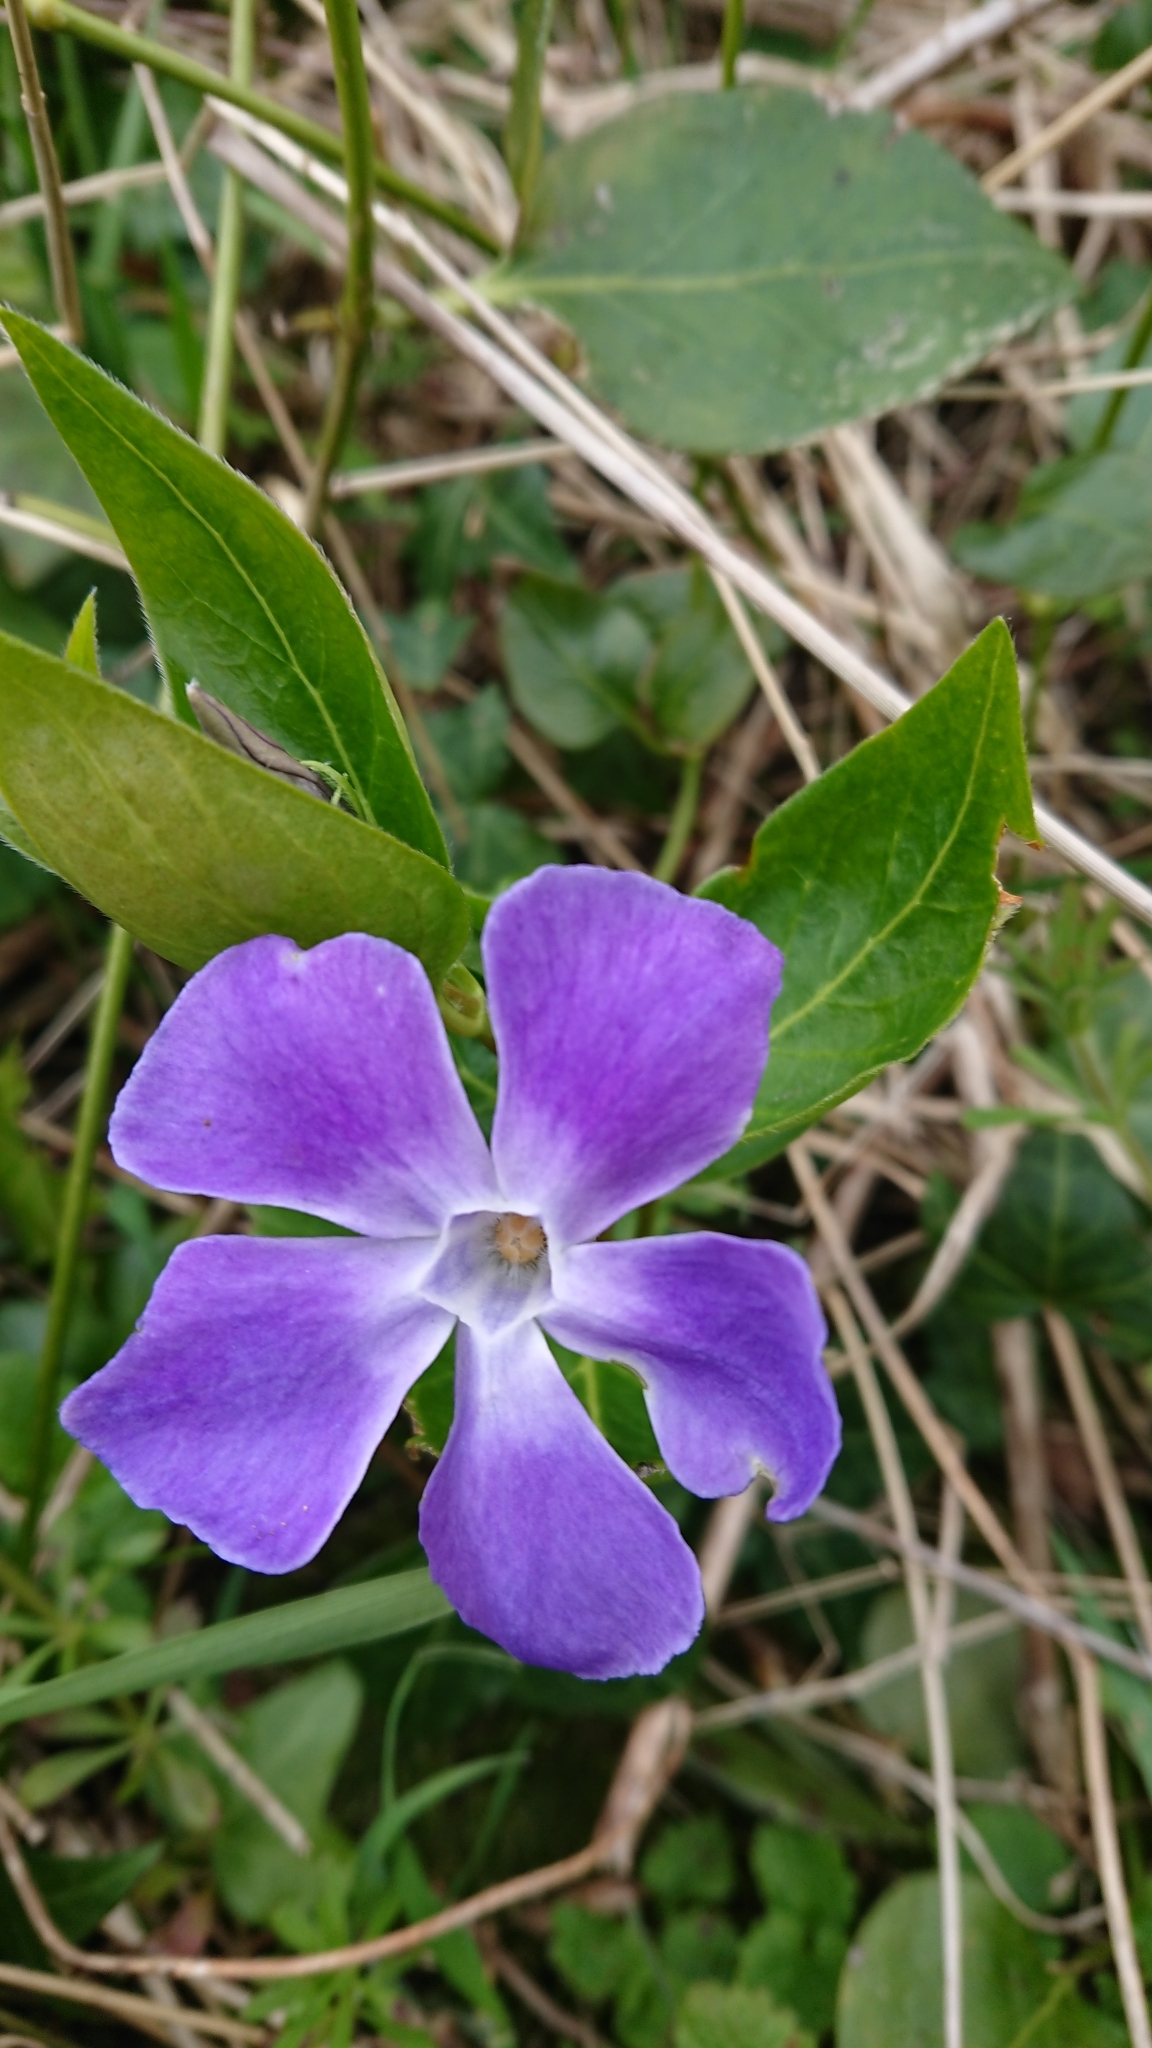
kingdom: Plantae
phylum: Tracheophyta
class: Magnoliopsida
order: Gentianales
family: Apocynaceae
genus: Vinca
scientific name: Vinca major
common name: Greater periwinkle
